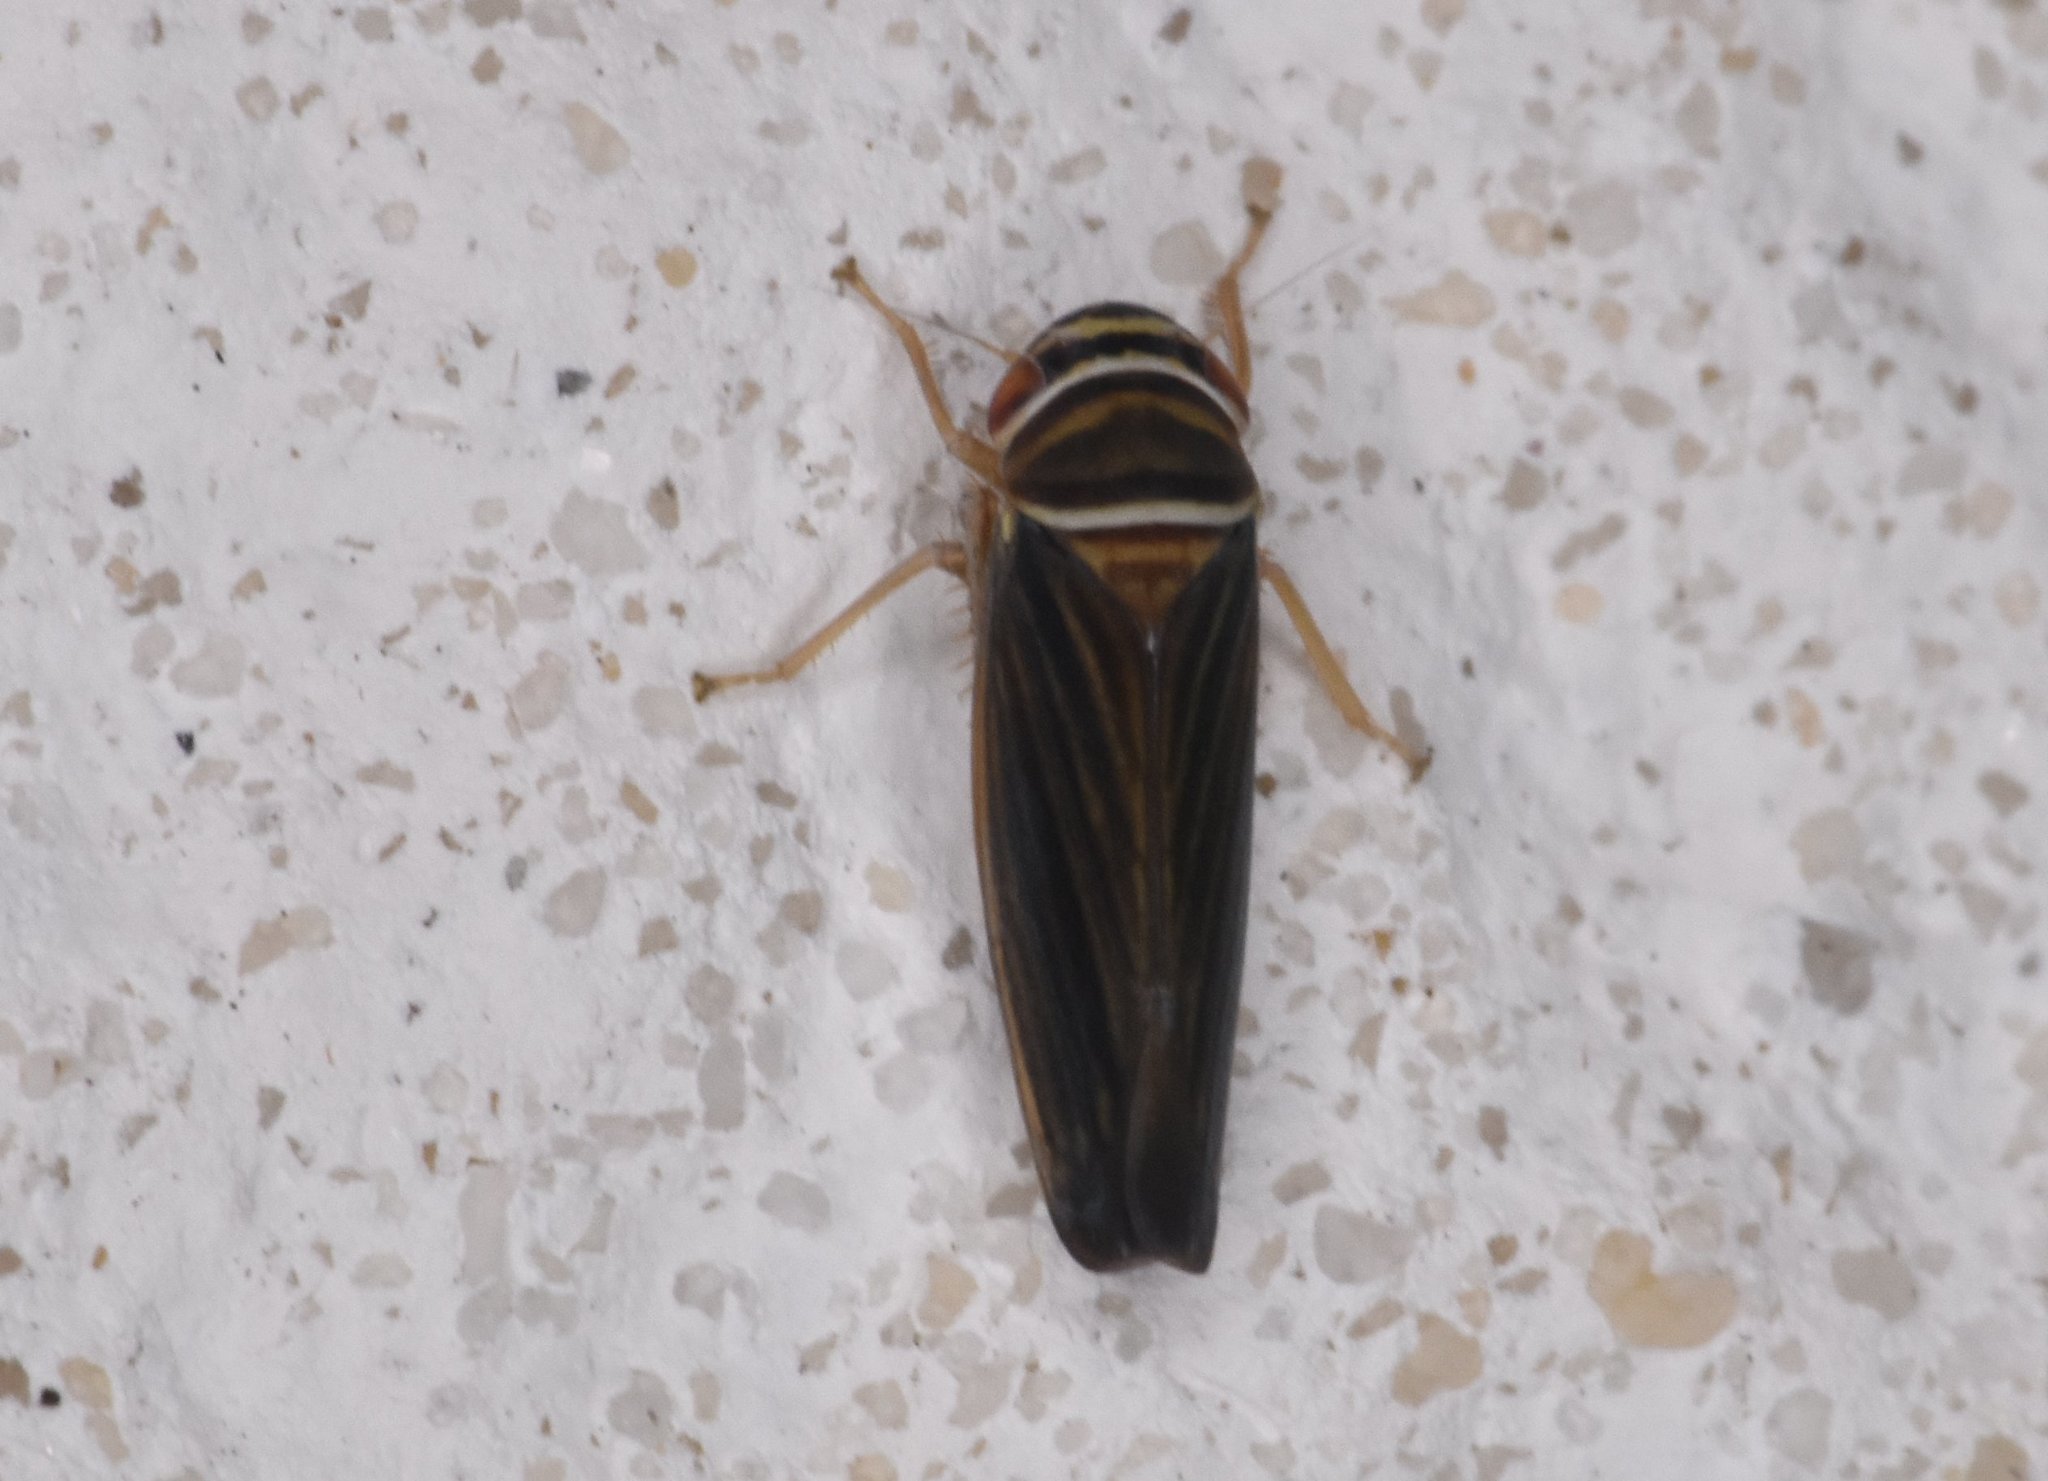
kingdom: Animalia
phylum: Arthropoda
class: Insecta
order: Hemiptera
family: Cicadellidae
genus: Tylozygus
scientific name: Tylozygus bifidus
